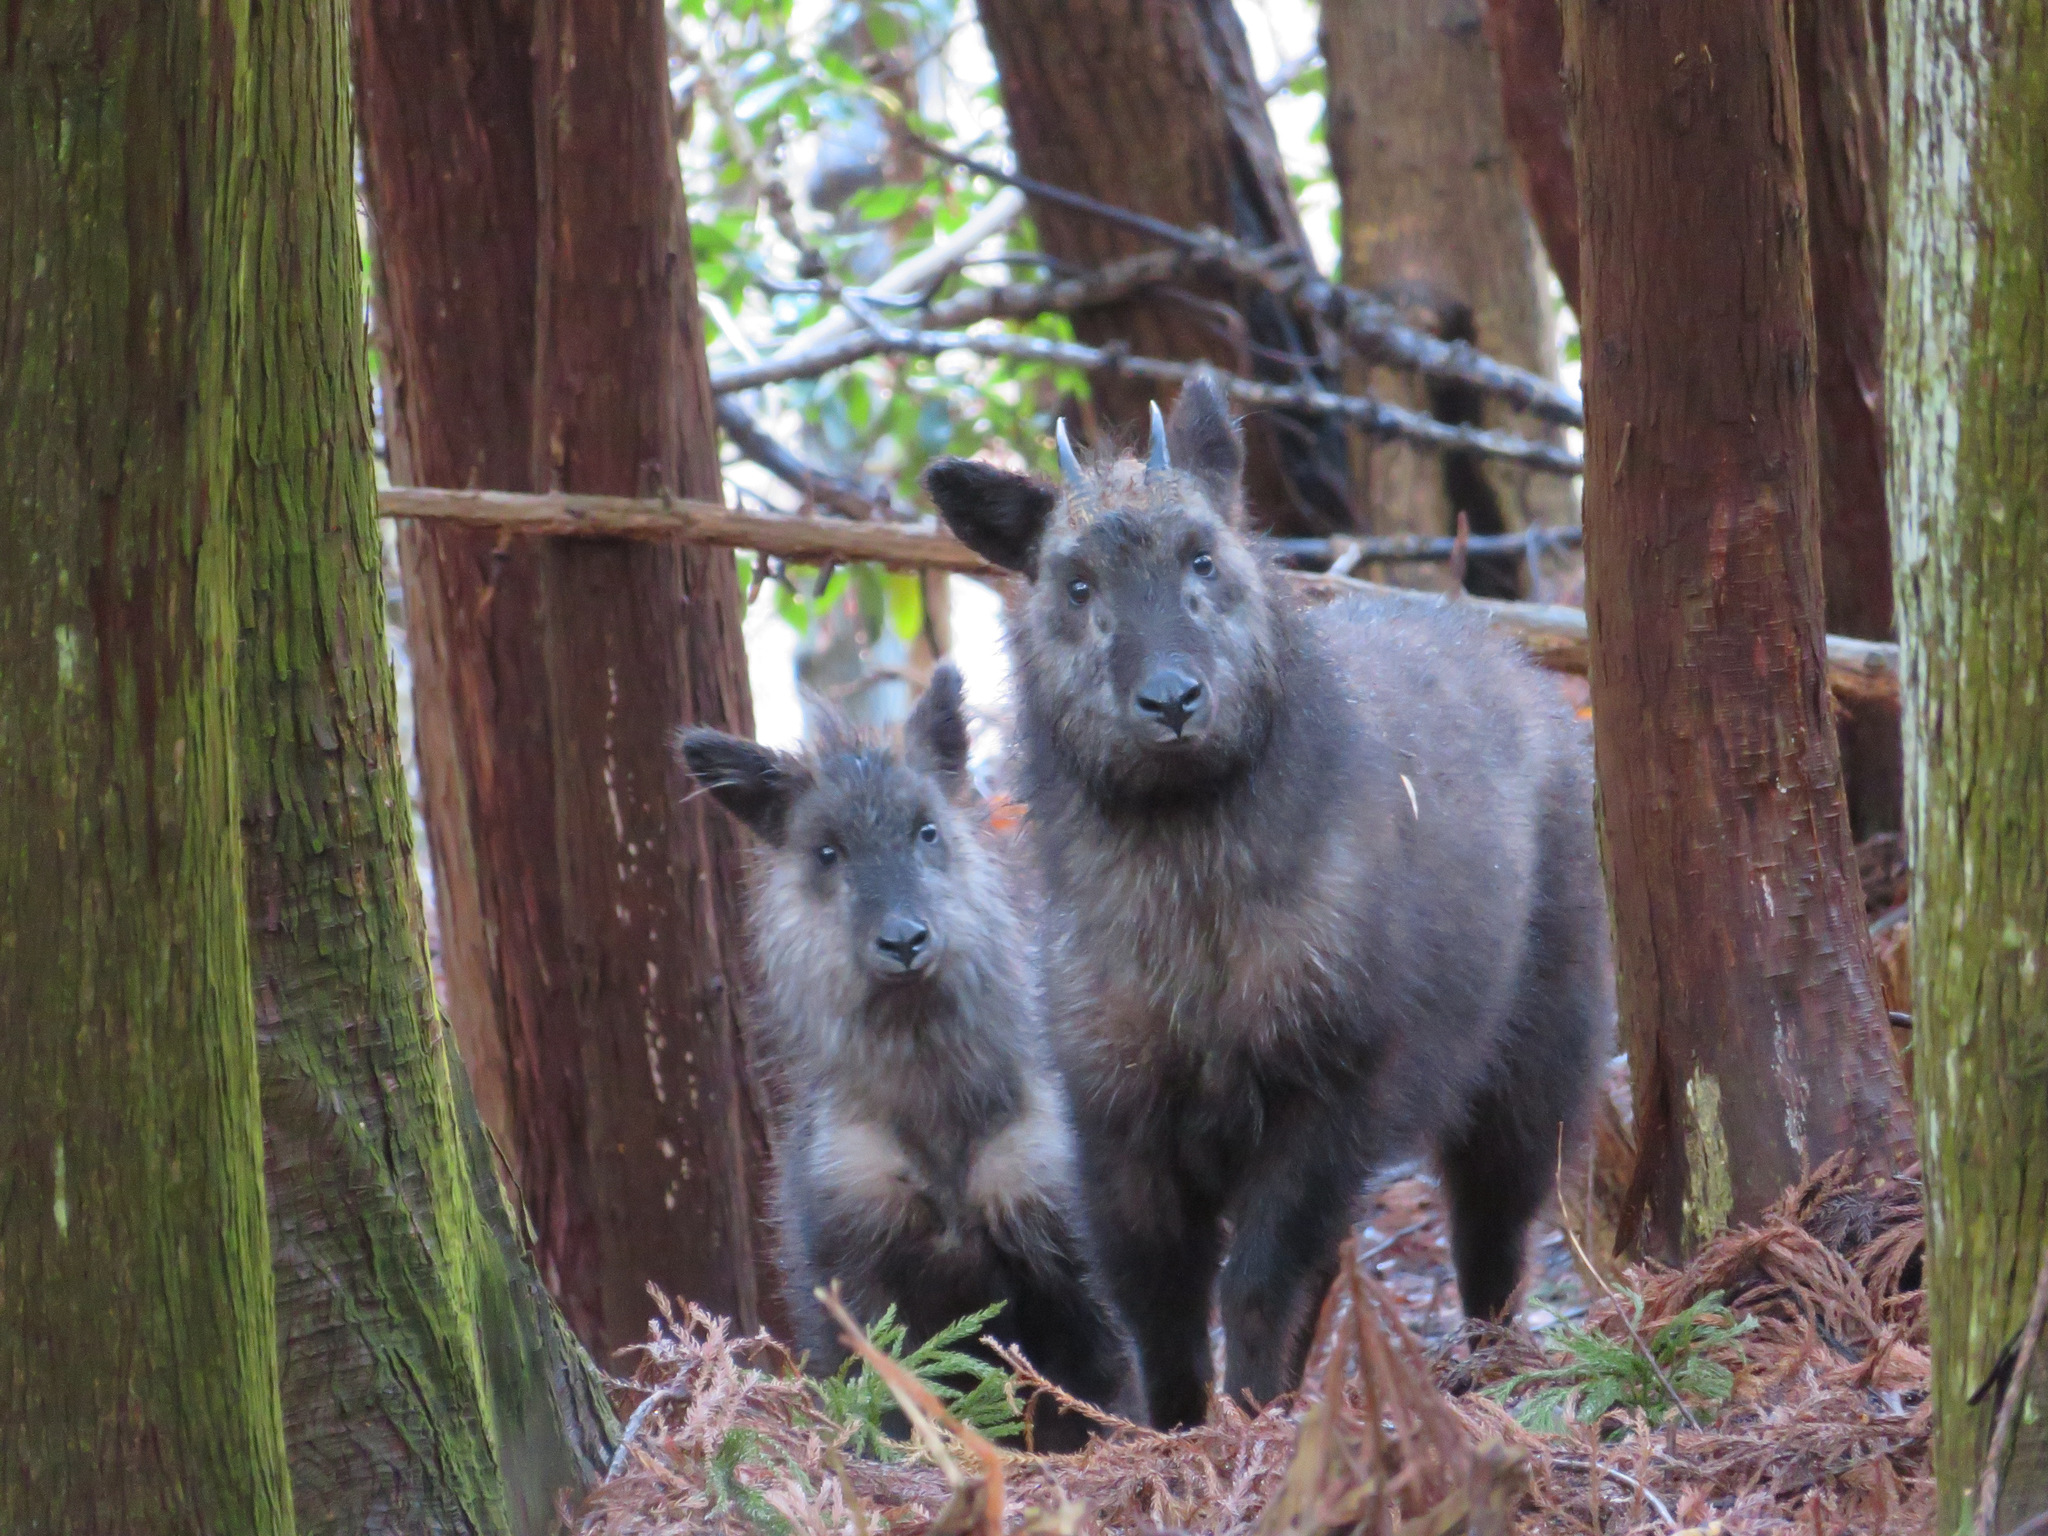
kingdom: Animalia
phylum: Chordata
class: Mammalia
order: Artiodactyla
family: Bovidae
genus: Capricornis
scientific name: Capricornis crispus
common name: Japanese serow
